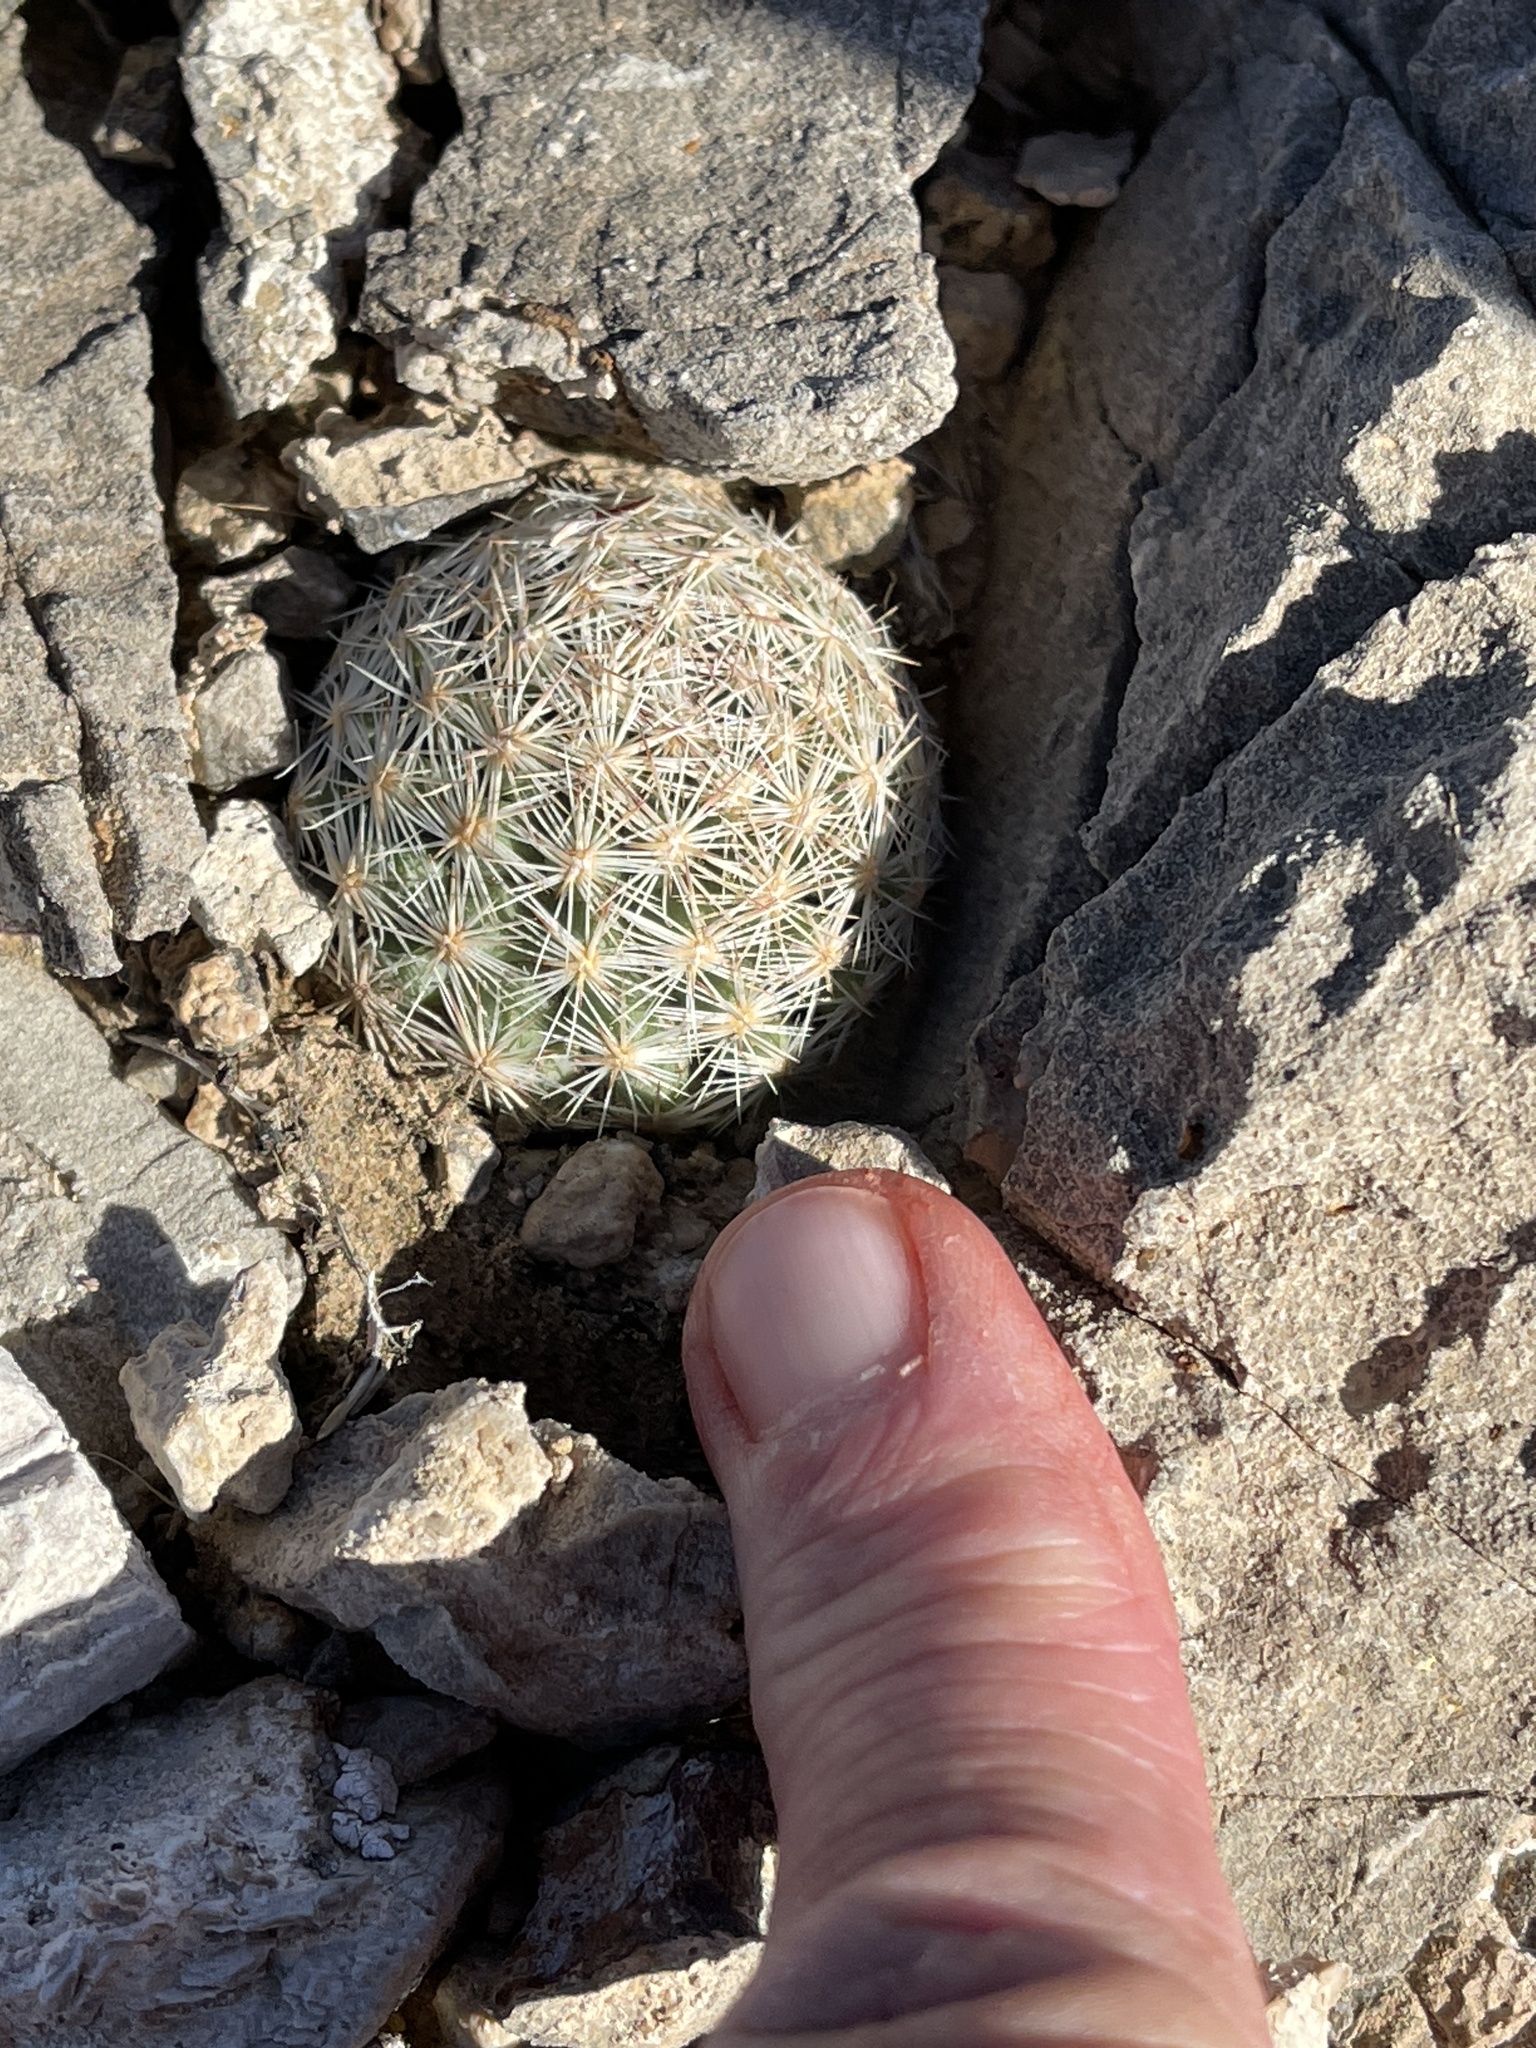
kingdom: Plantae
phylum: Tracheophyta
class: Magnoliopsida
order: Caryophyllales
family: Cactaceae
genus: Pelecyphora
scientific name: Pelecyphora dasyacantha
